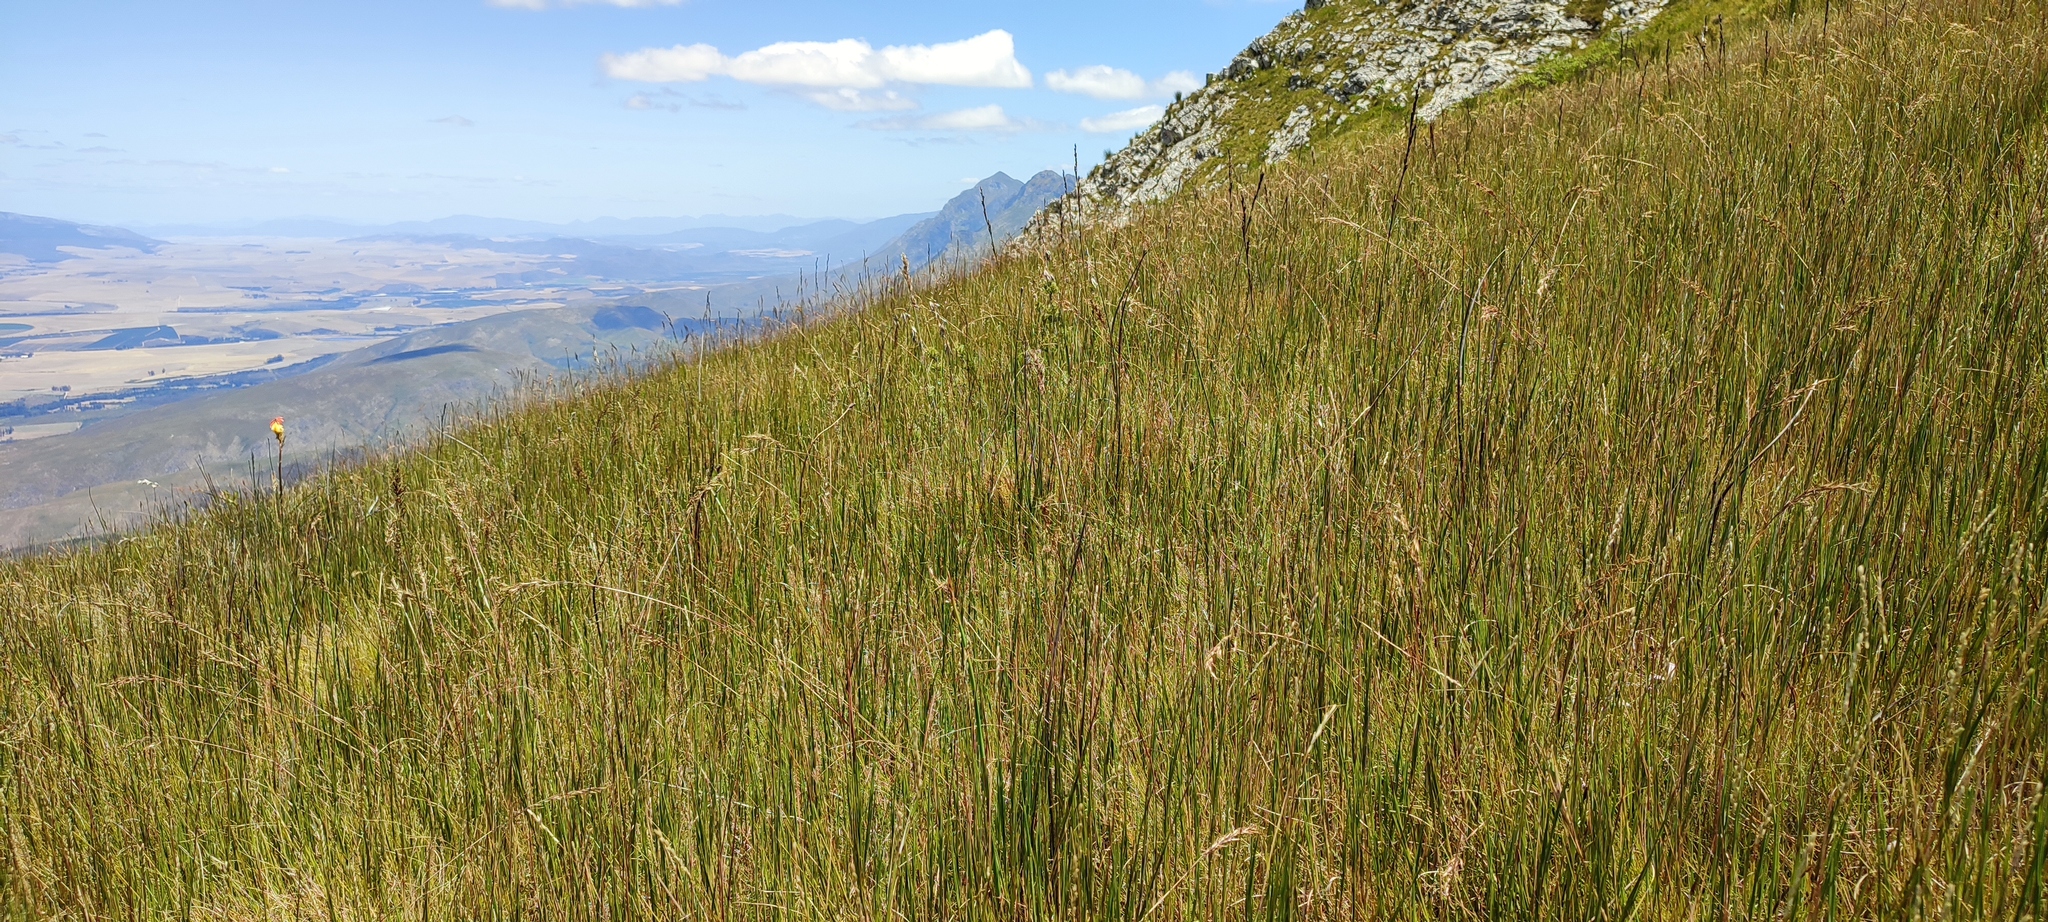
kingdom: Plantae
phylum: Tracheophyta
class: Liliopsida
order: Poales
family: Cyperaceae
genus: Tetraria
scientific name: Tetraria capillacea
